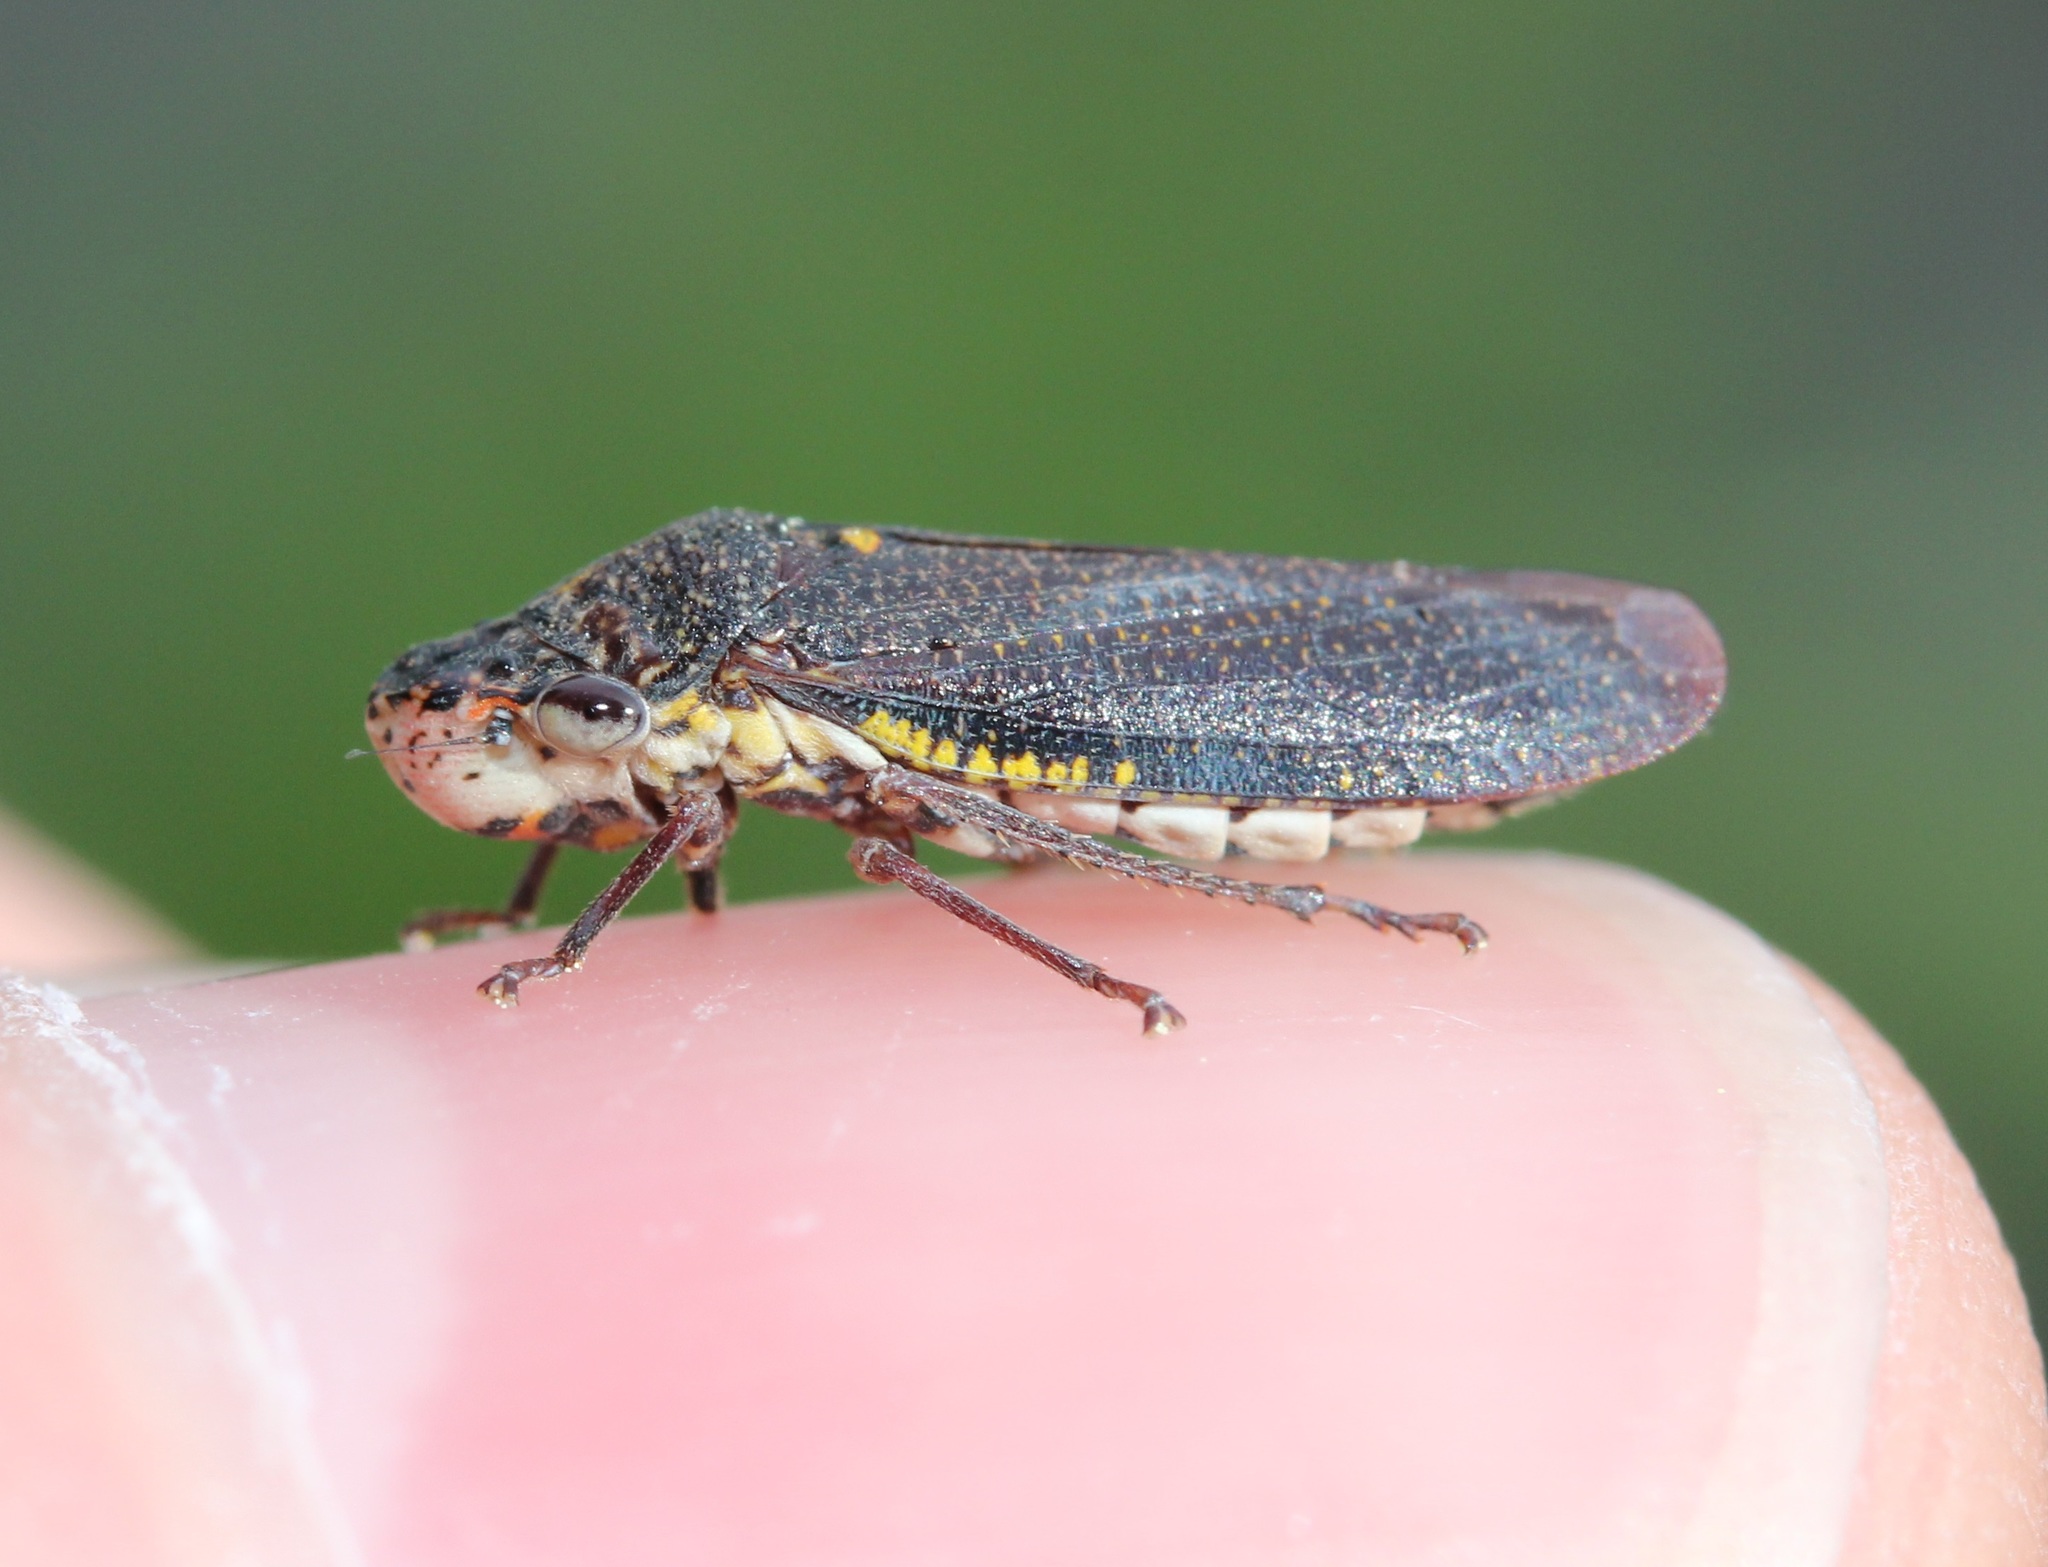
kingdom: Animalia
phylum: Arthropoda
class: Insecta
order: Hemiptera
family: Cicadellidae
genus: Paraulacizes
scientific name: Paraulacizes irrorata
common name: Speckled sharpshooter
